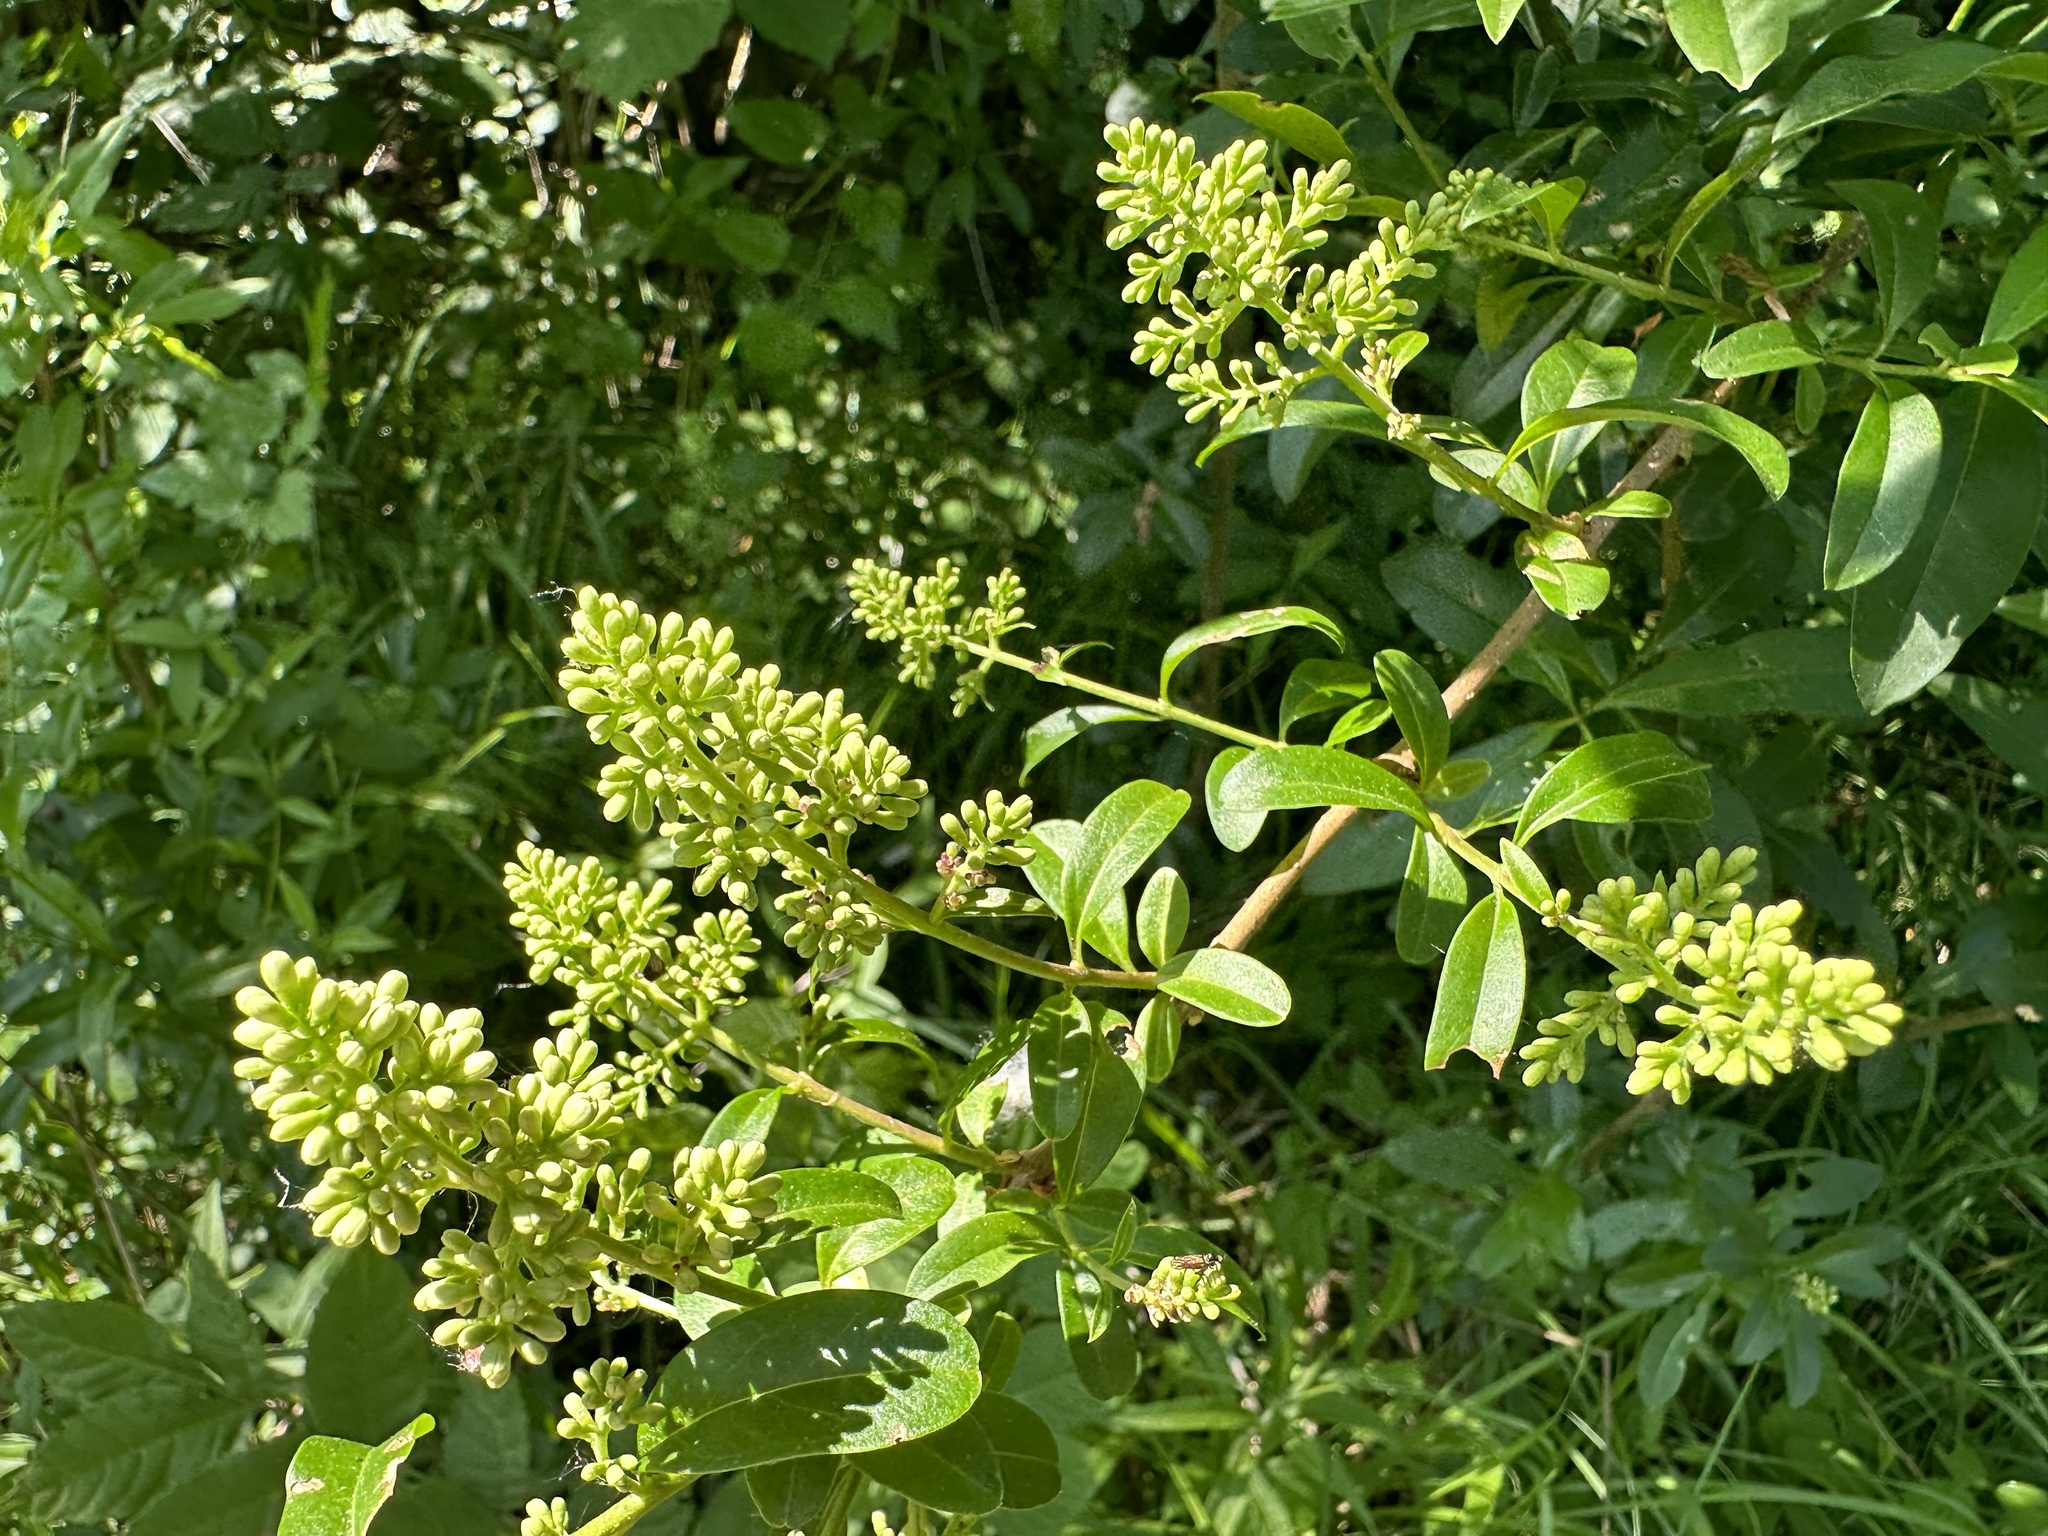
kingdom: Plantae
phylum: Tracheophyta
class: Magnoliopsida
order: Lamiales
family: Oleaceae
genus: Ligustrum
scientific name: Ligustrum vulgare
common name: Wild privet
